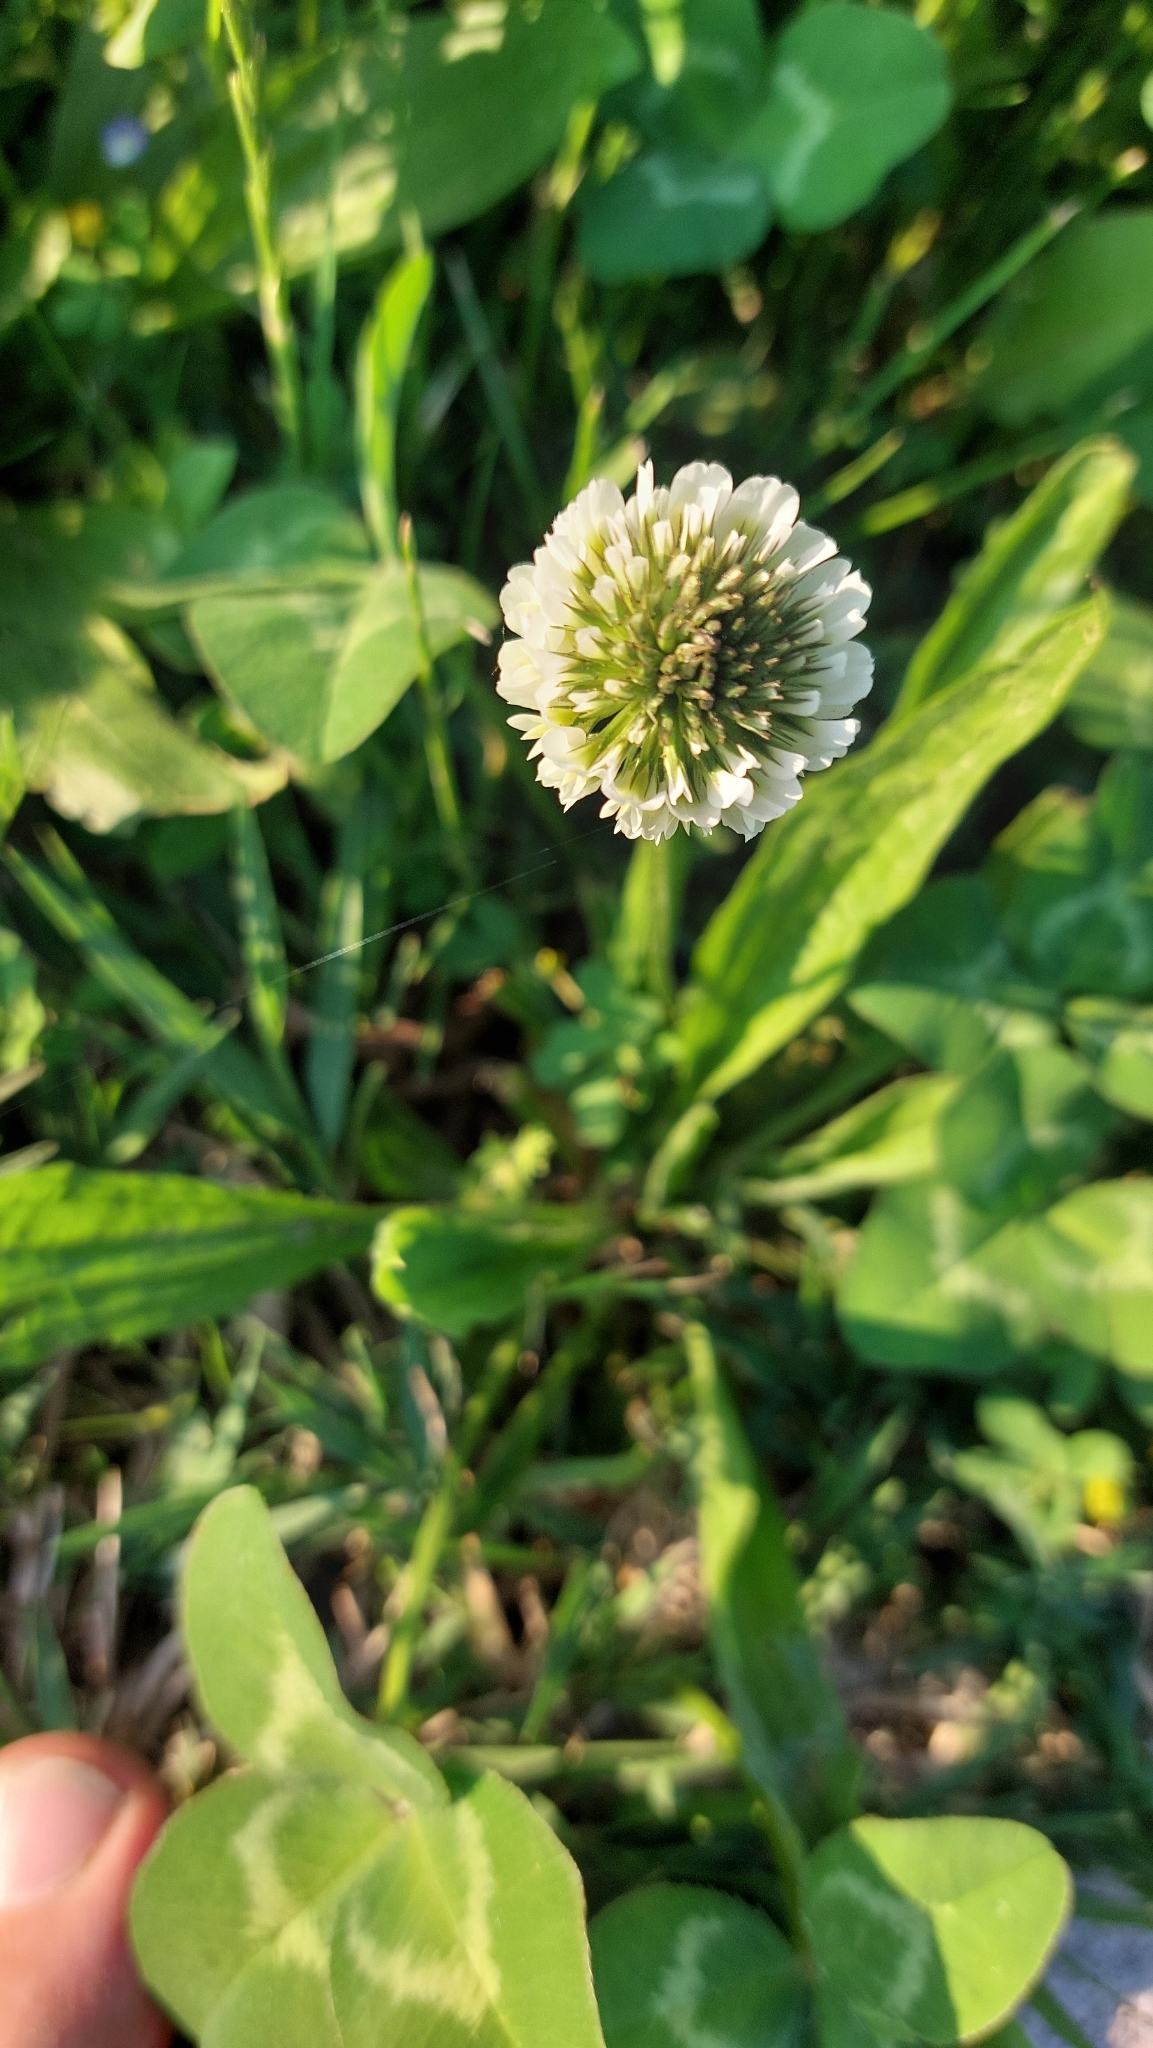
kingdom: Plantae
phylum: Tracheophyta
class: Magnoliopsida
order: Fabales
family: Fabaceae
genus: Trifolium
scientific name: Trifolium repens
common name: White clover
